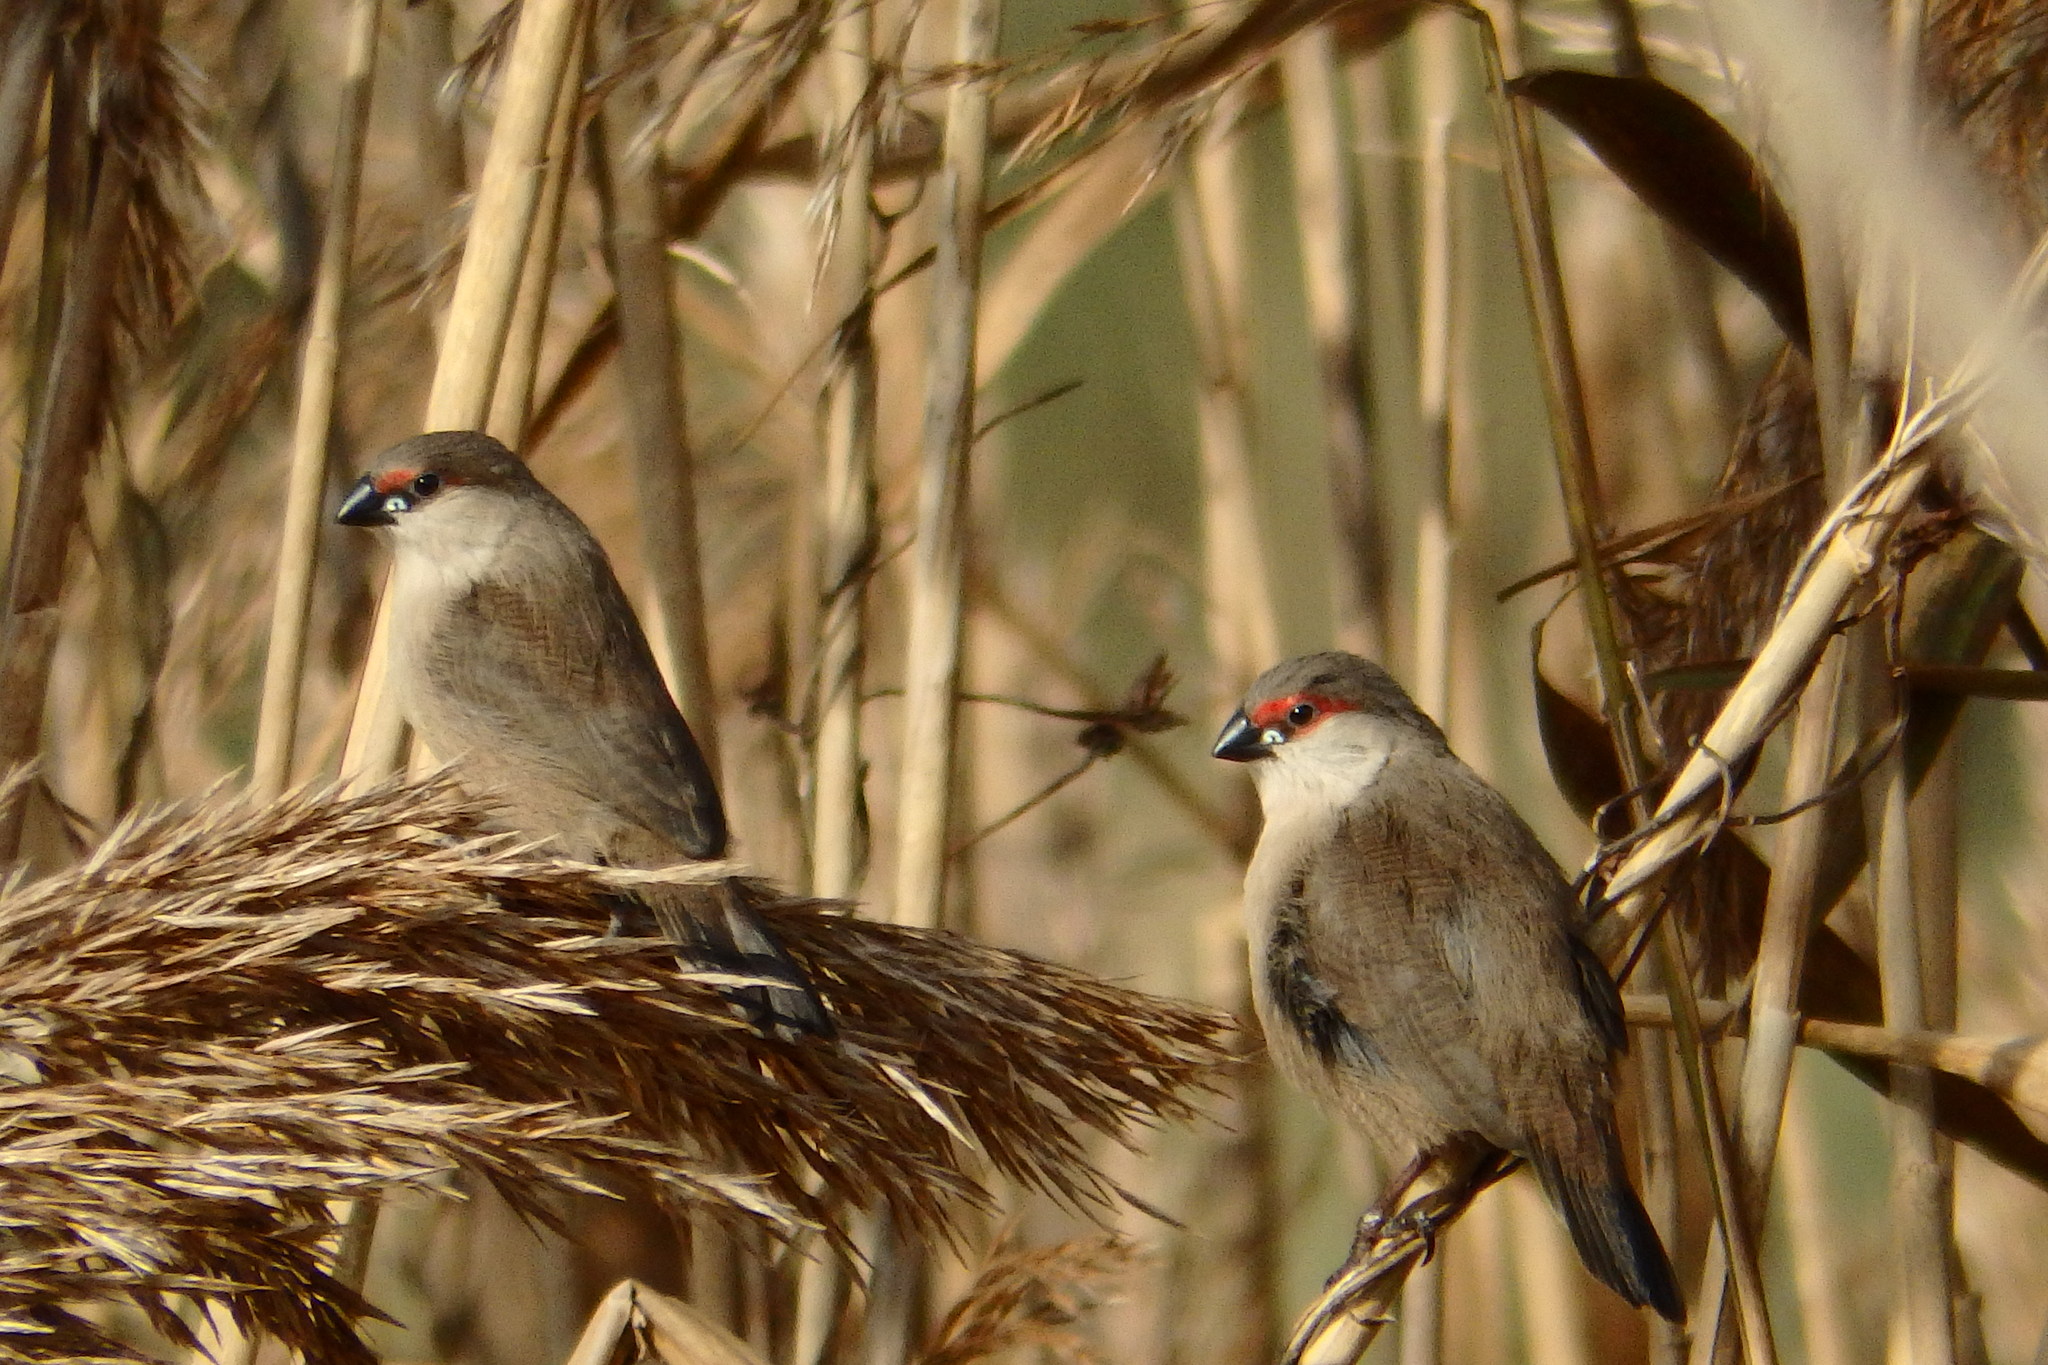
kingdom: Animalia
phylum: Chordata
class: Aves
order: Passeriformes
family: Estrildidae
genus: Estrilda
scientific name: Estrilda astrild
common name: Common waxbill
